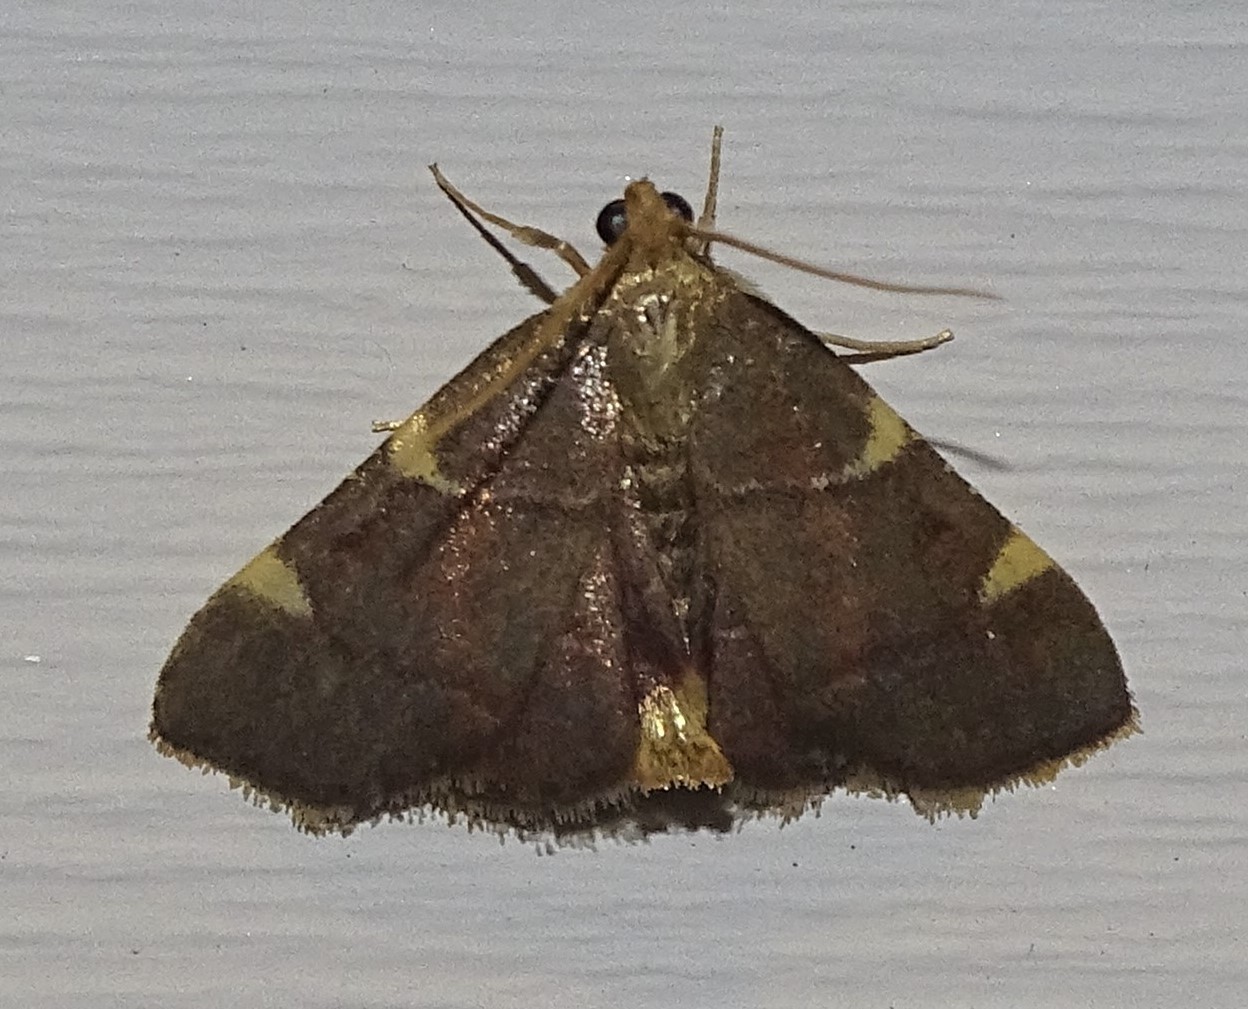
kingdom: Animalia
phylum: Arthropoda
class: Insecta
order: Lepidoptera
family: Pyralidae
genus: Hypsopygia
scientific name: Hypsopygia olinalis
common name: Yellow-fringed dolichomia moth
